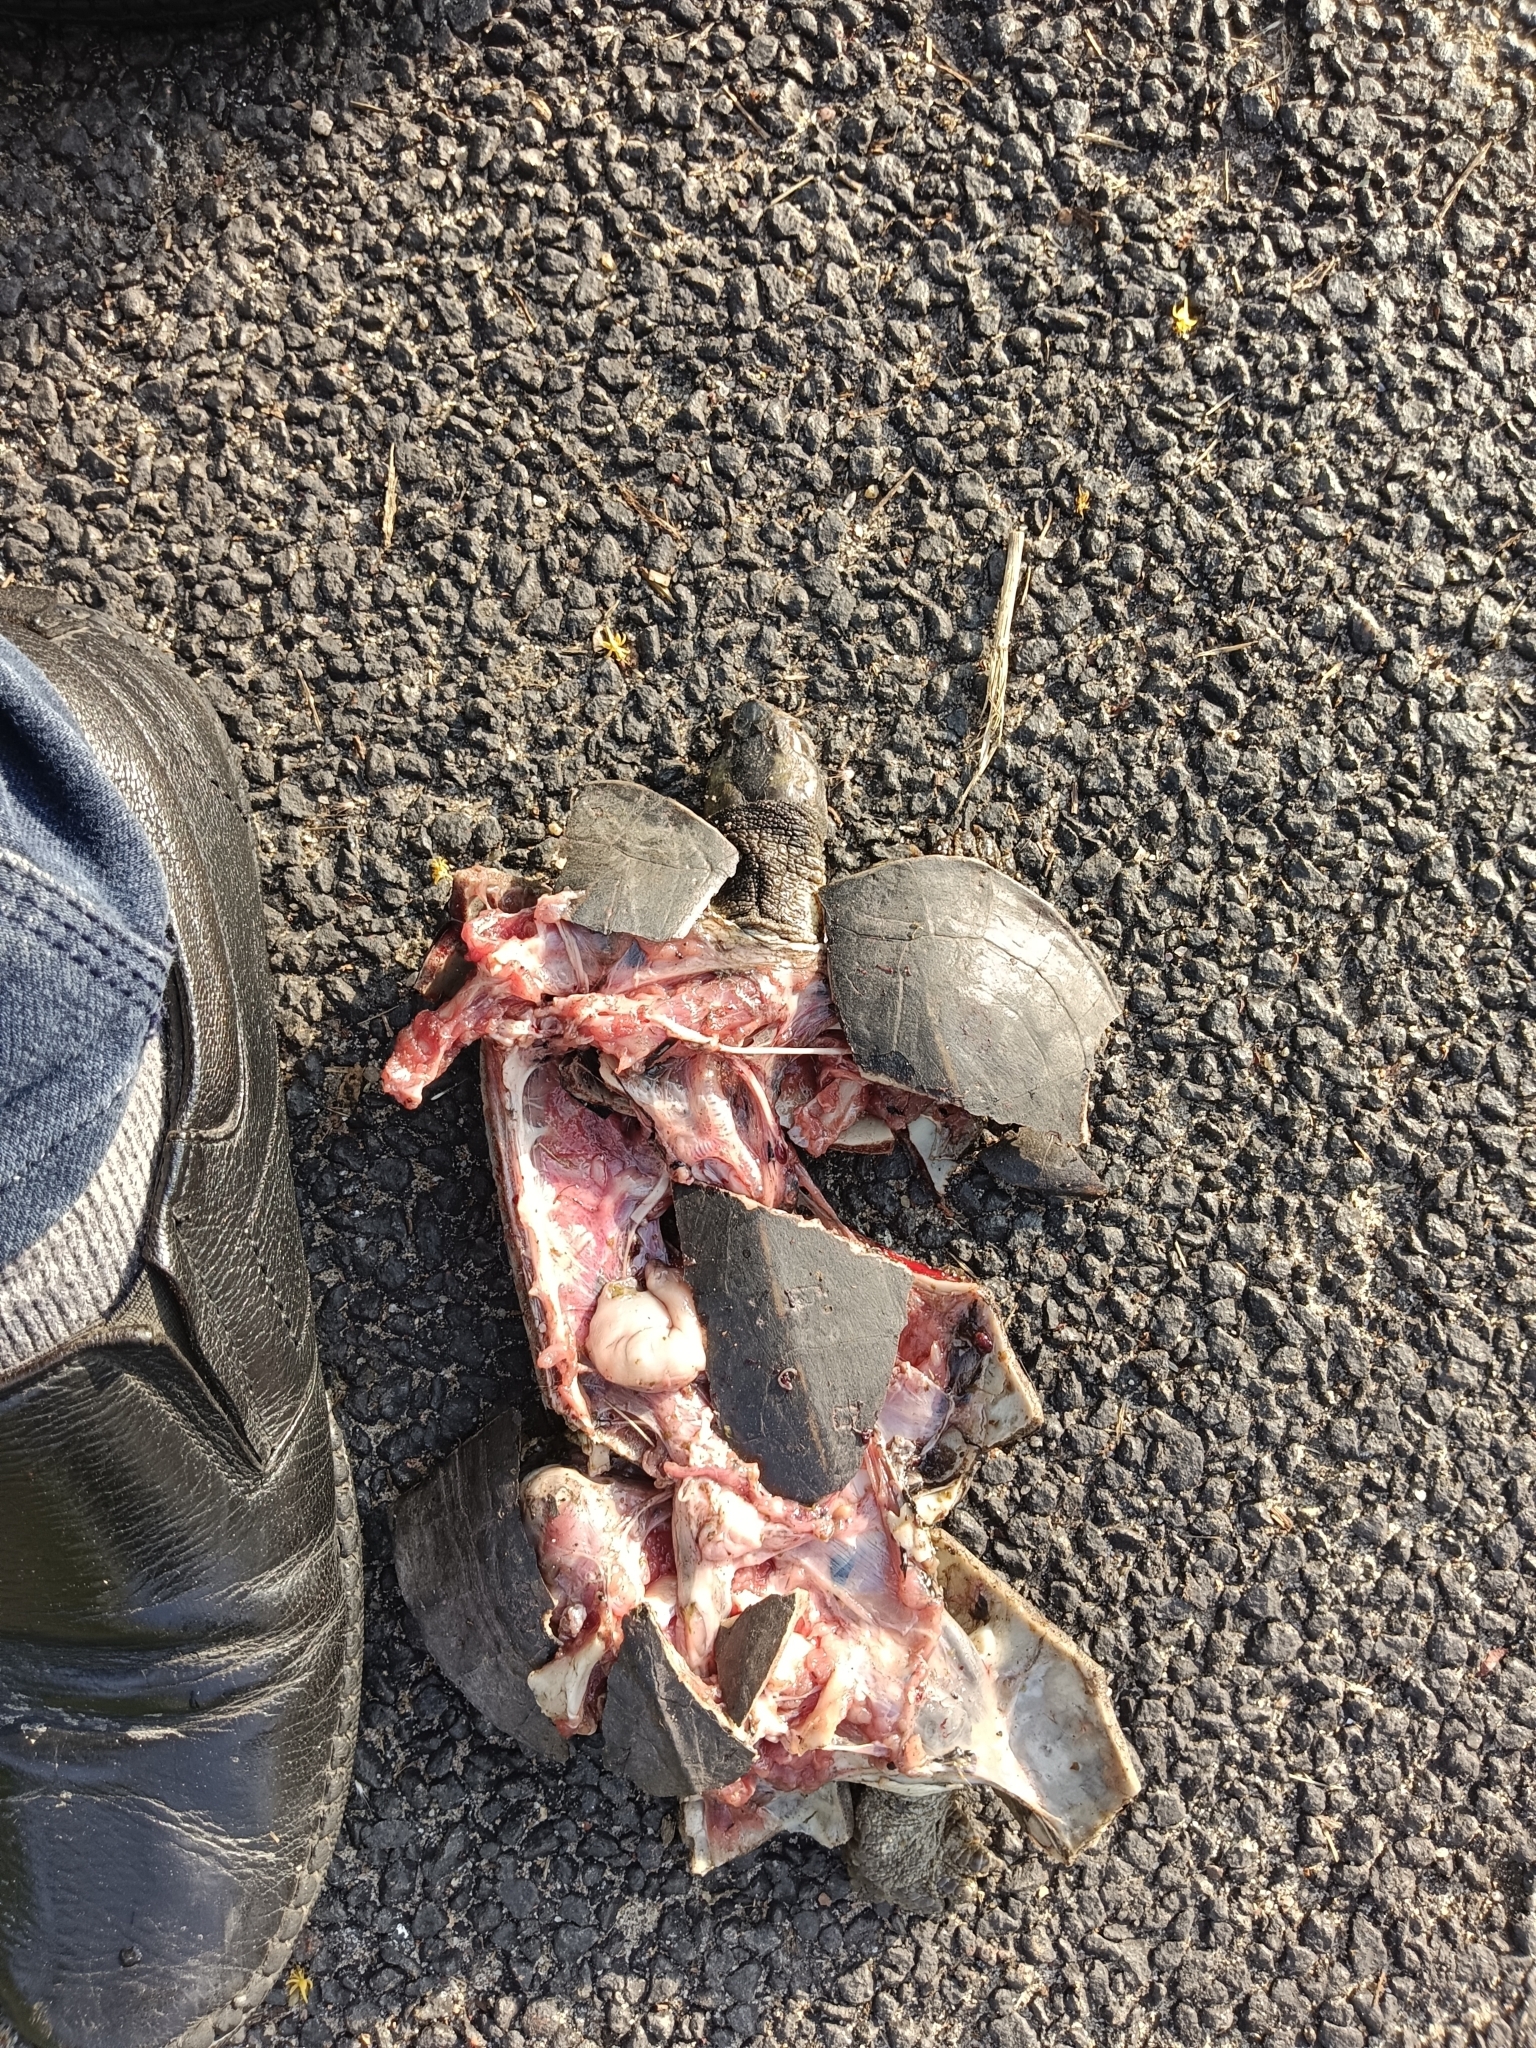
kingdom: Animalia
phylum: Chordata
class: Testudines
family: Geoemydidae
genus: Melanochelys
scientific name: Melanochelys trijuga
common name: Indian black turtle
